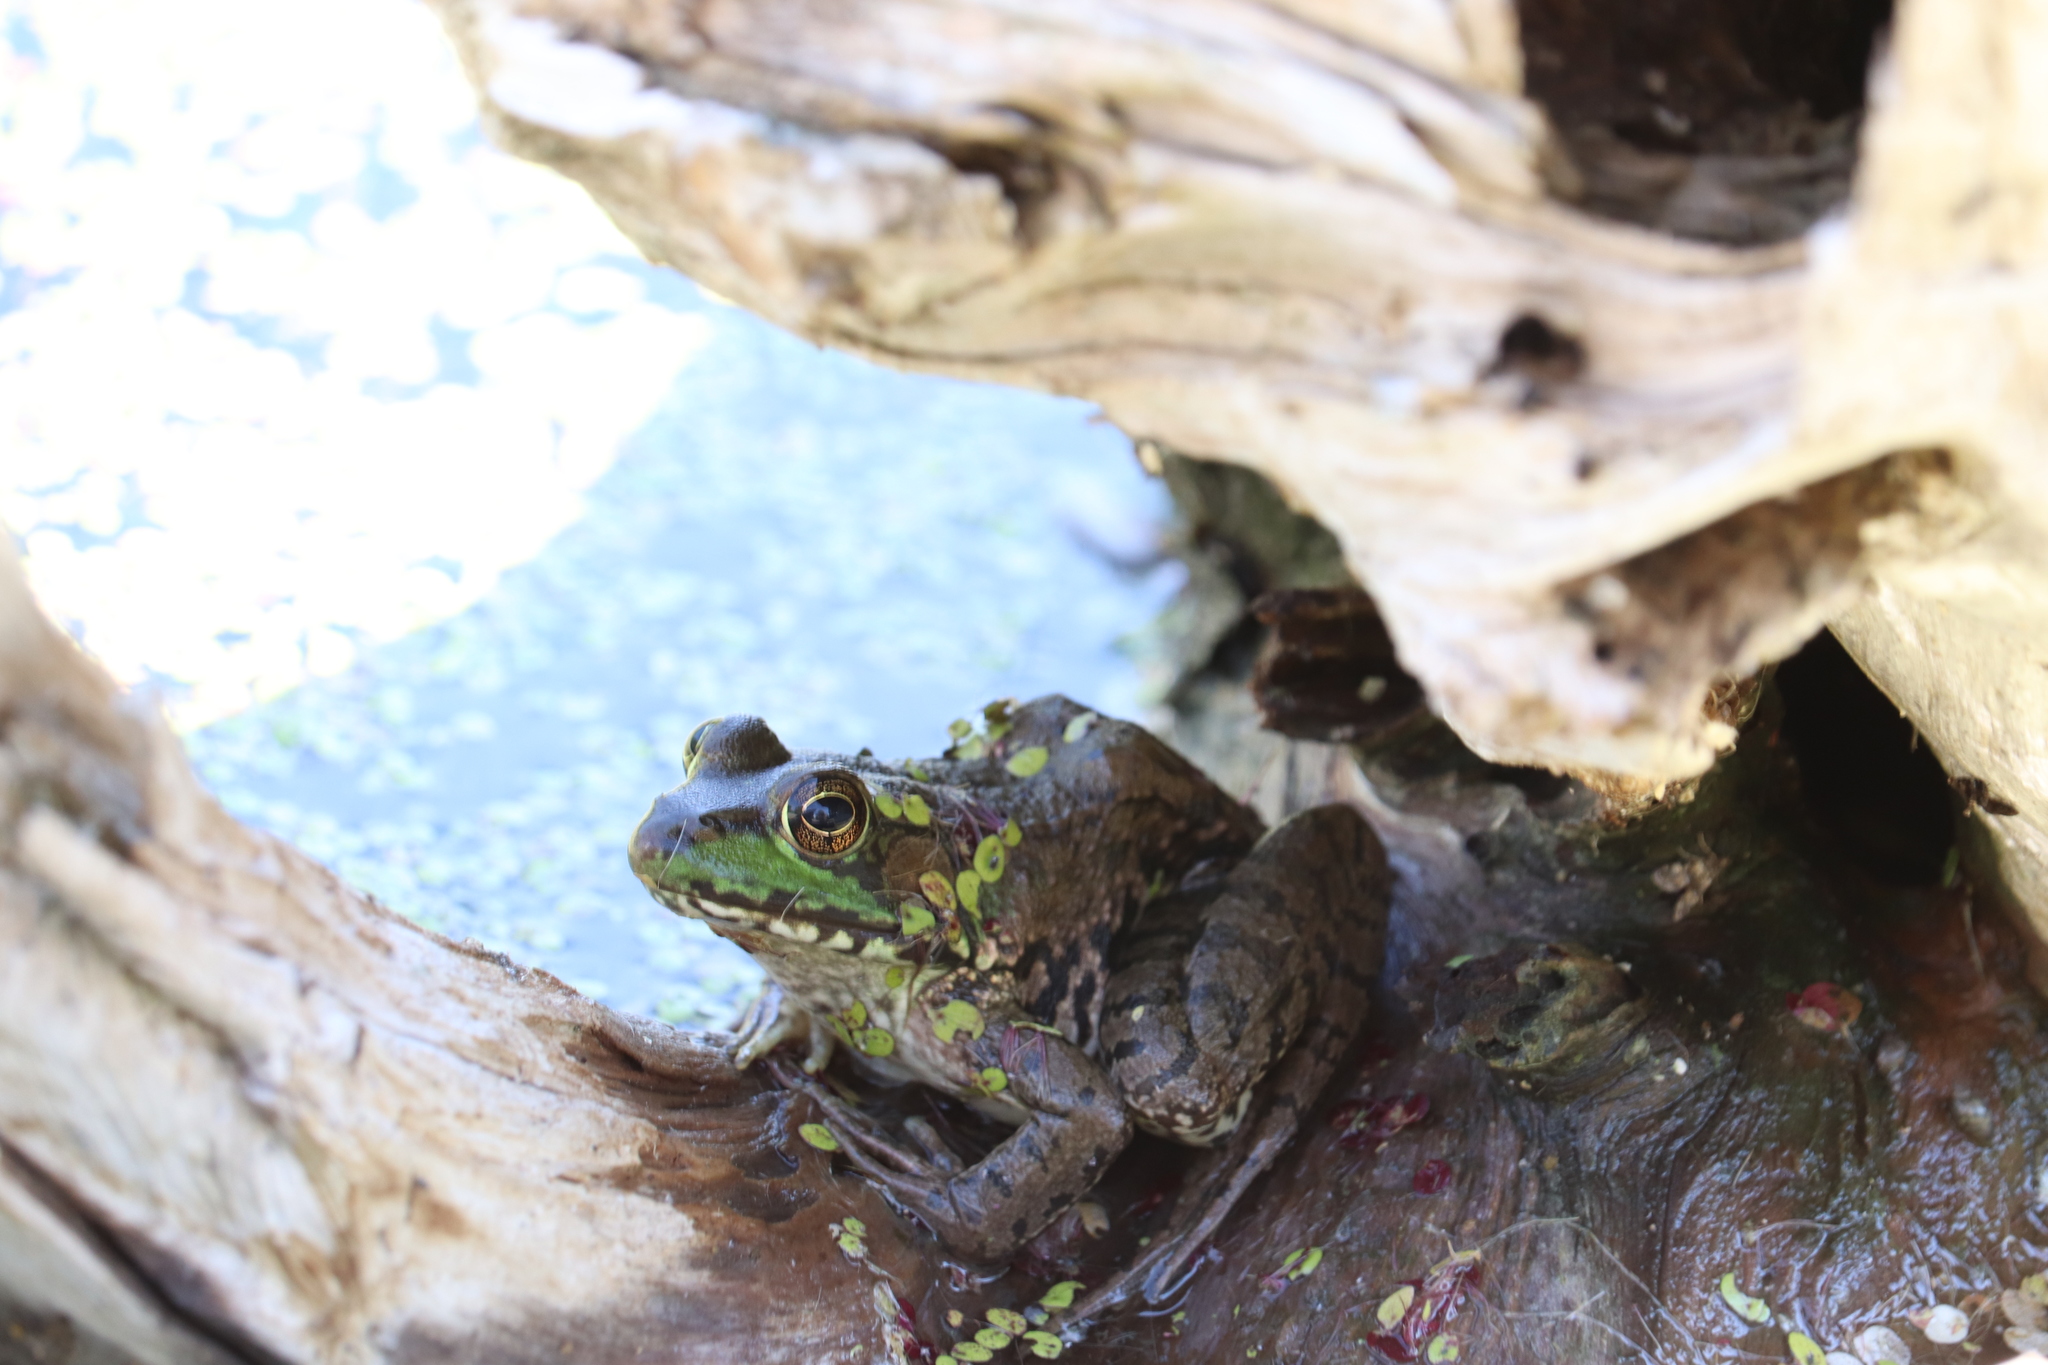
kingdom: Animalia
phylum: Chordata
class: Amphibia
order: Anura
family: Ranidae
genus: Lithobates
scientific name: Lithobates clamitans
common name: Green frog
